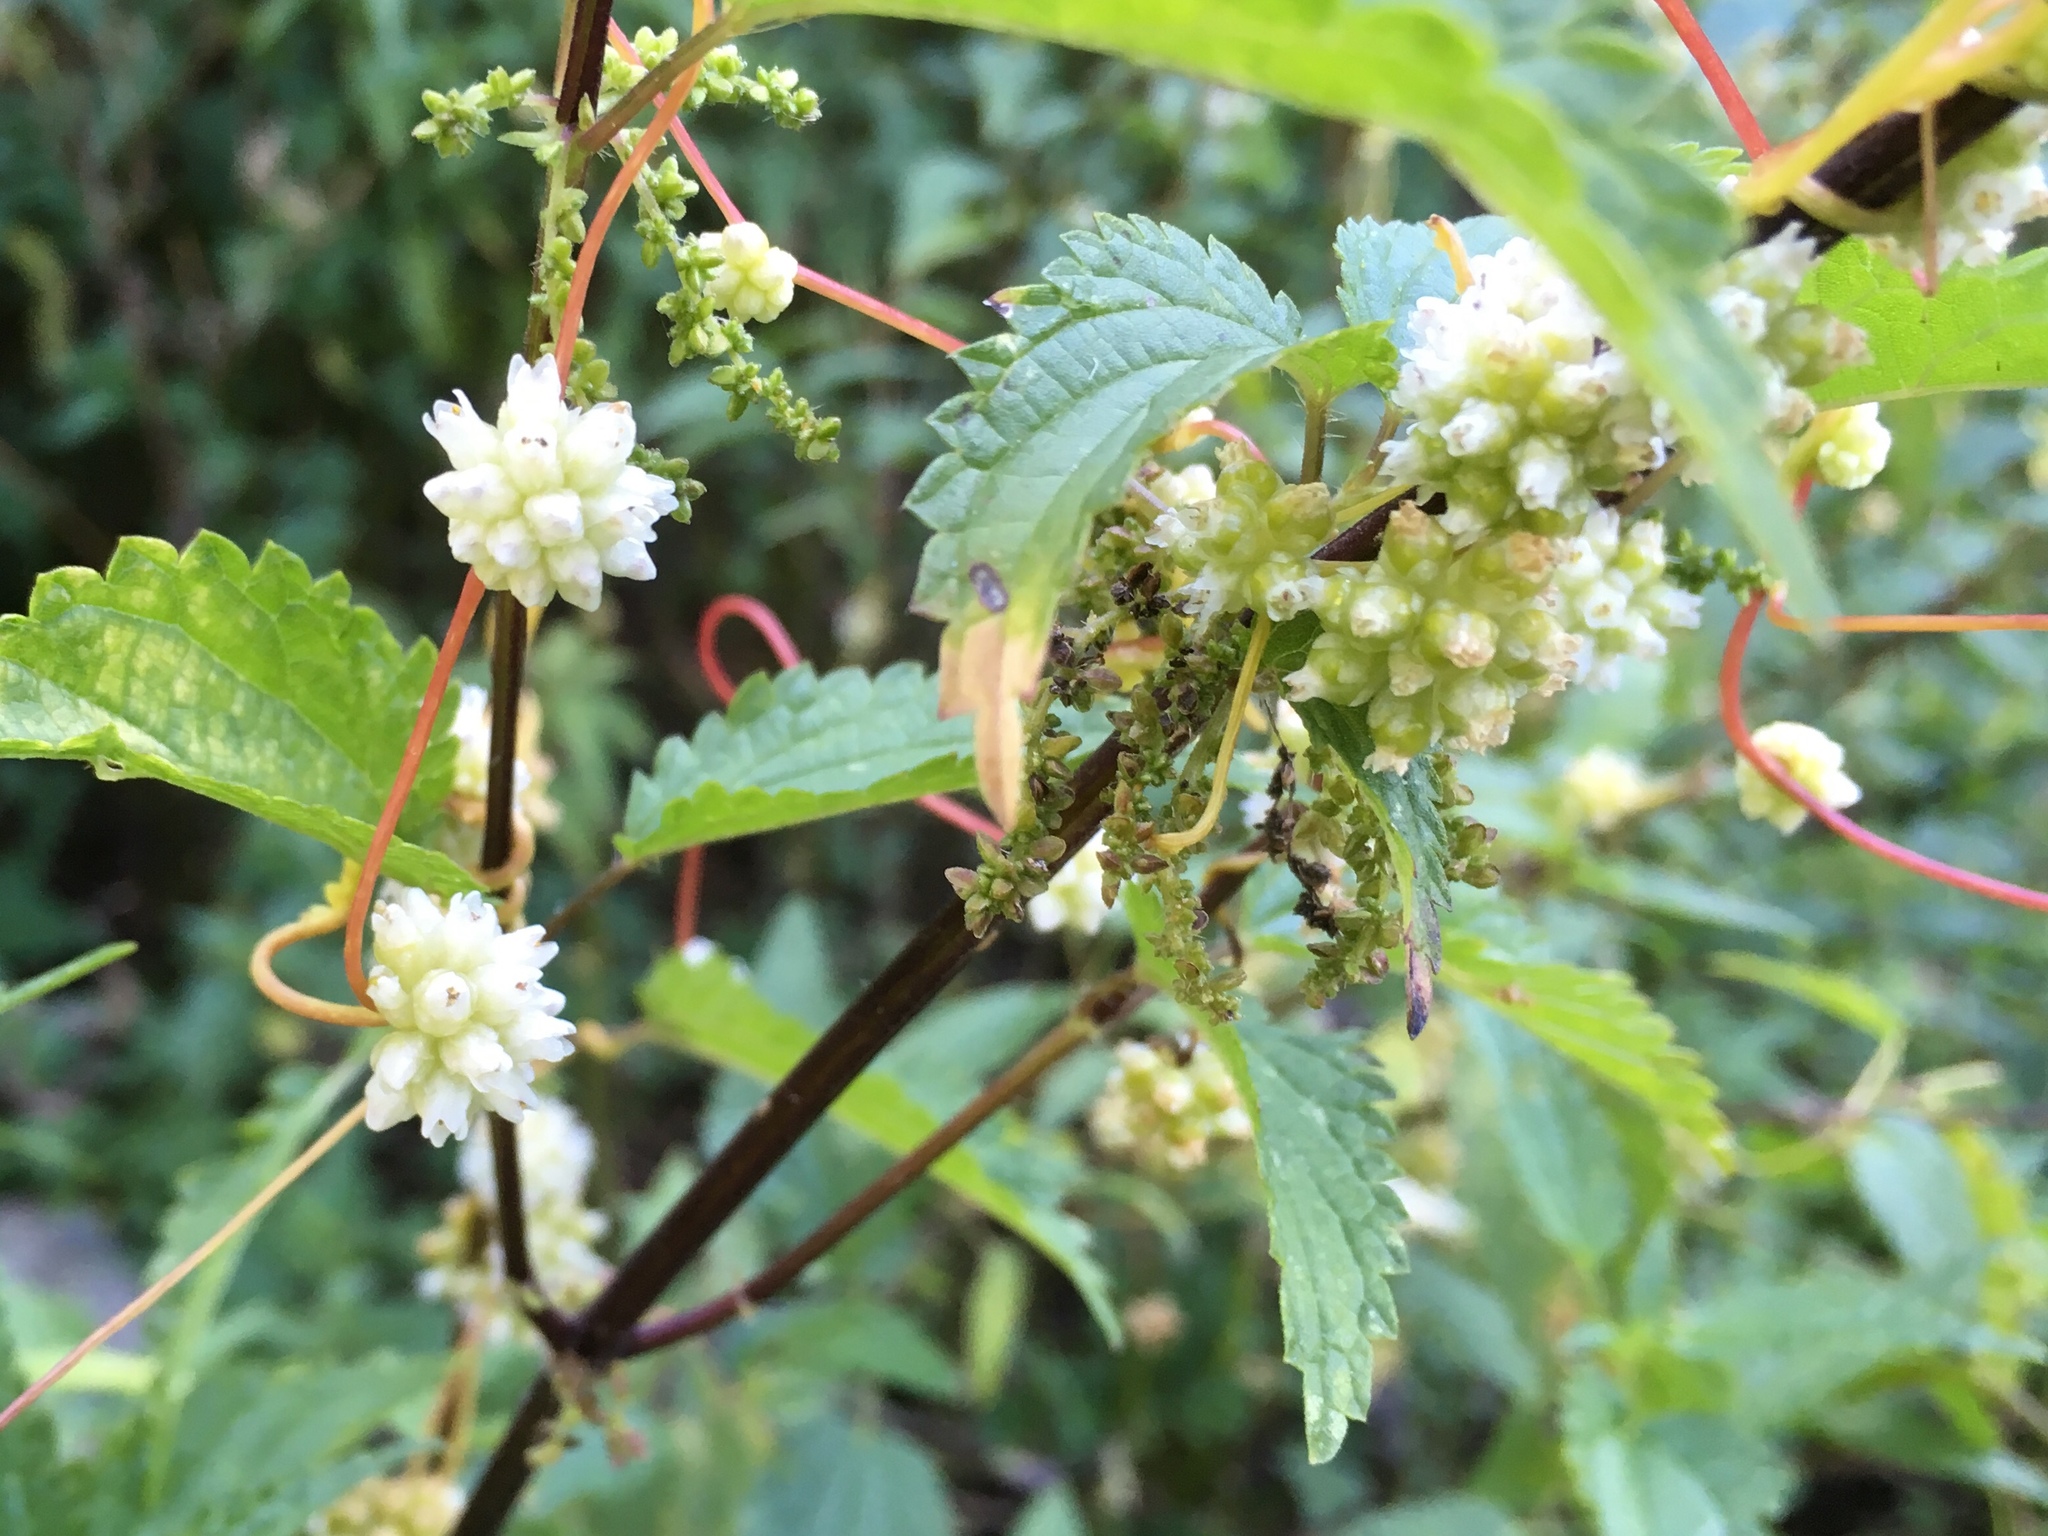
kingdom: Plantae
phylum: Tracheophyta
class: Magnoliopsida
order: Solanales
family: Convolvulaceae
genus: Cuscuta
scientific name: Cuscuta europaea
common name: Greater dodder
